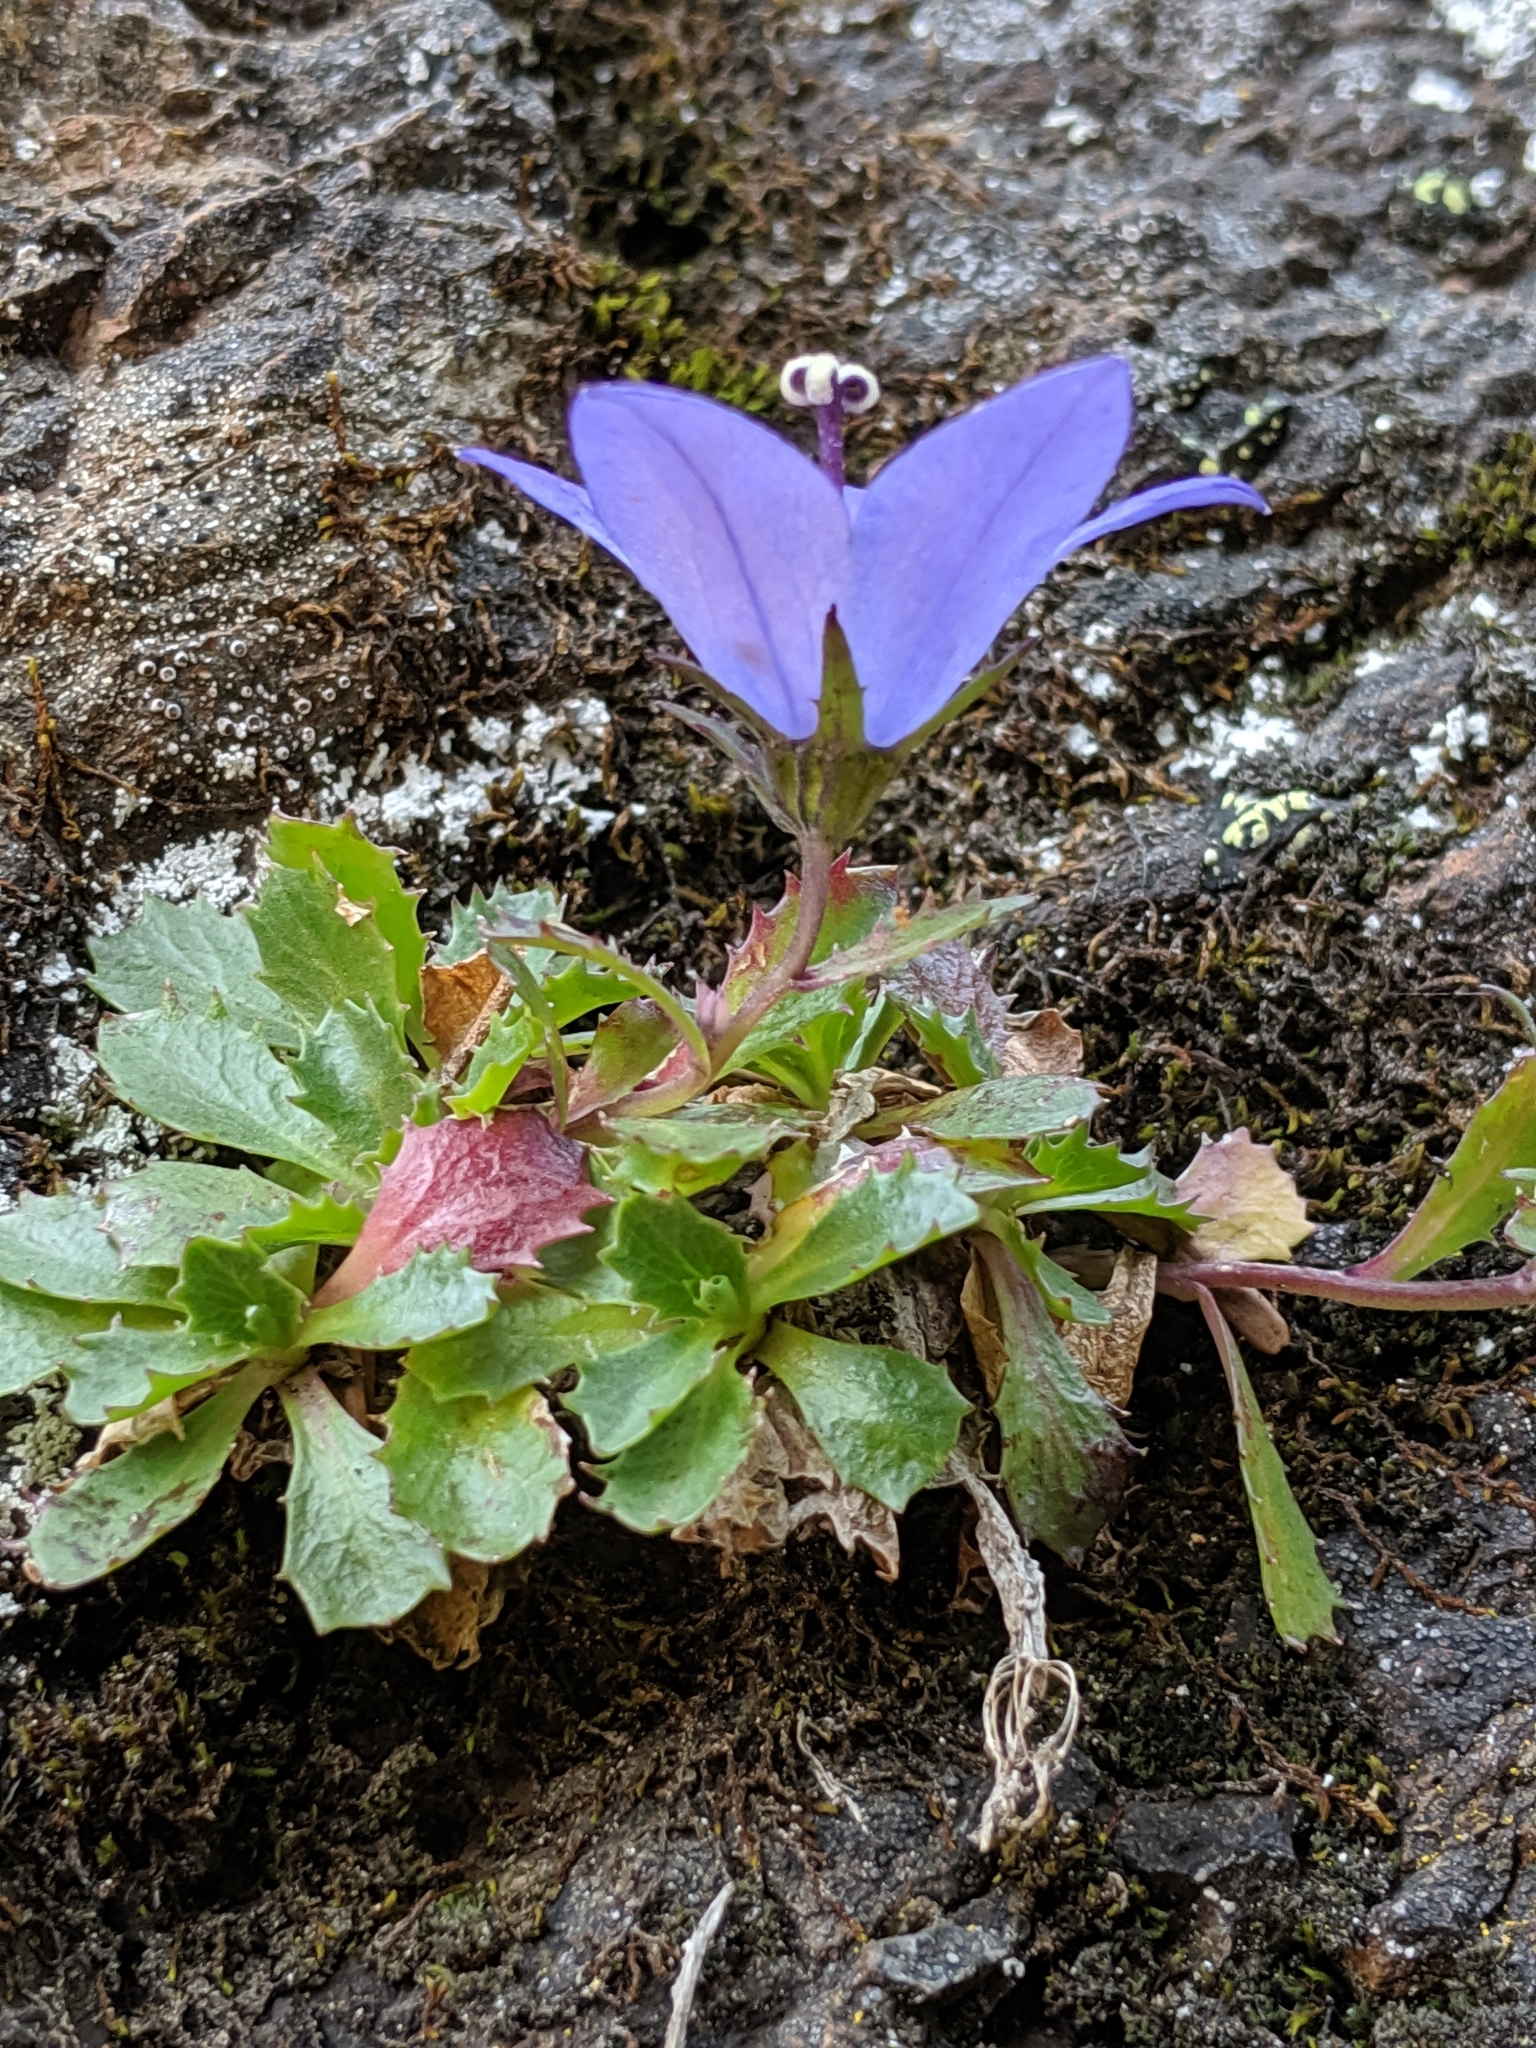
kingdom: Plantae
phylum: Tracheophyta
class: Magnoliopsida
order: Asterales
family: Campanulaceae
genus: Campanula
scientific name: Campanula piperi
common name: Olympic bellflower
